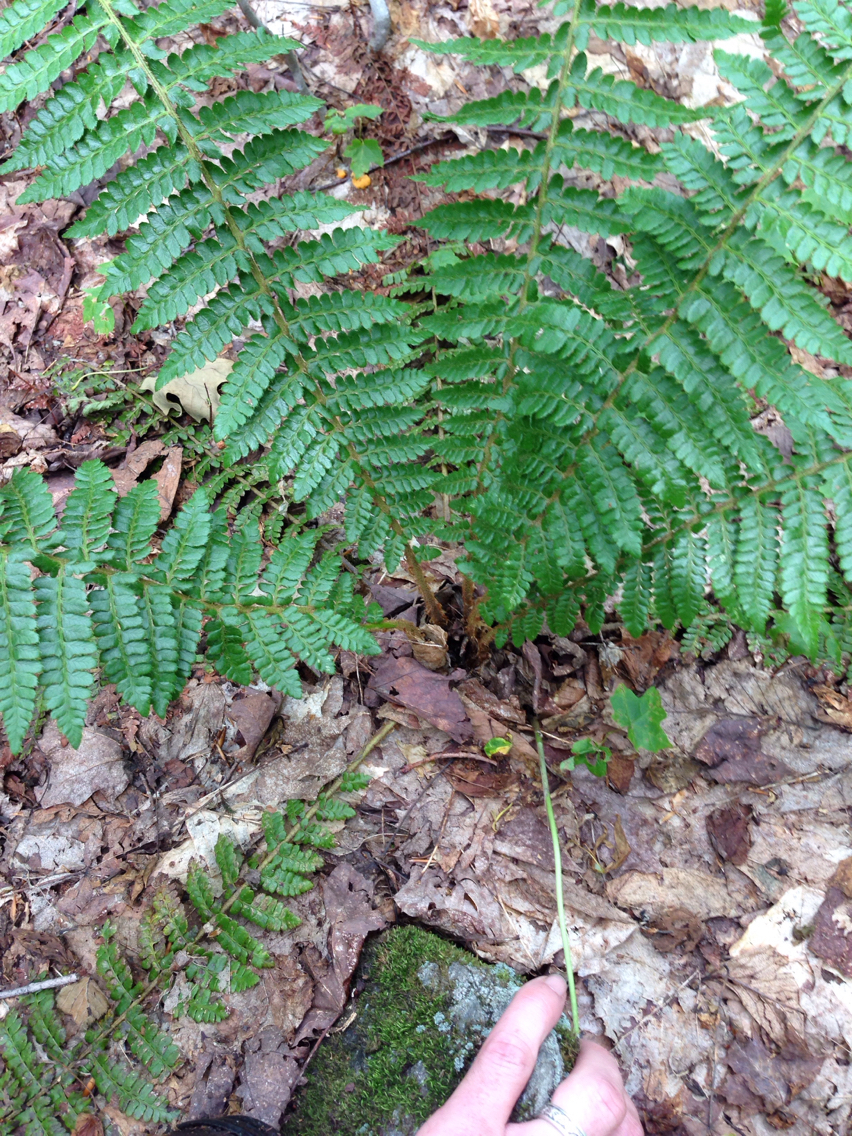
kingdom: Plantae
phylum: Tracheophyta
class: Polypodiopsida
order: Polypodiales
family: Dryopteridaceae
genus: Polystichum
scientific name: Polystichum braunii
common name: Braun's holly fern
